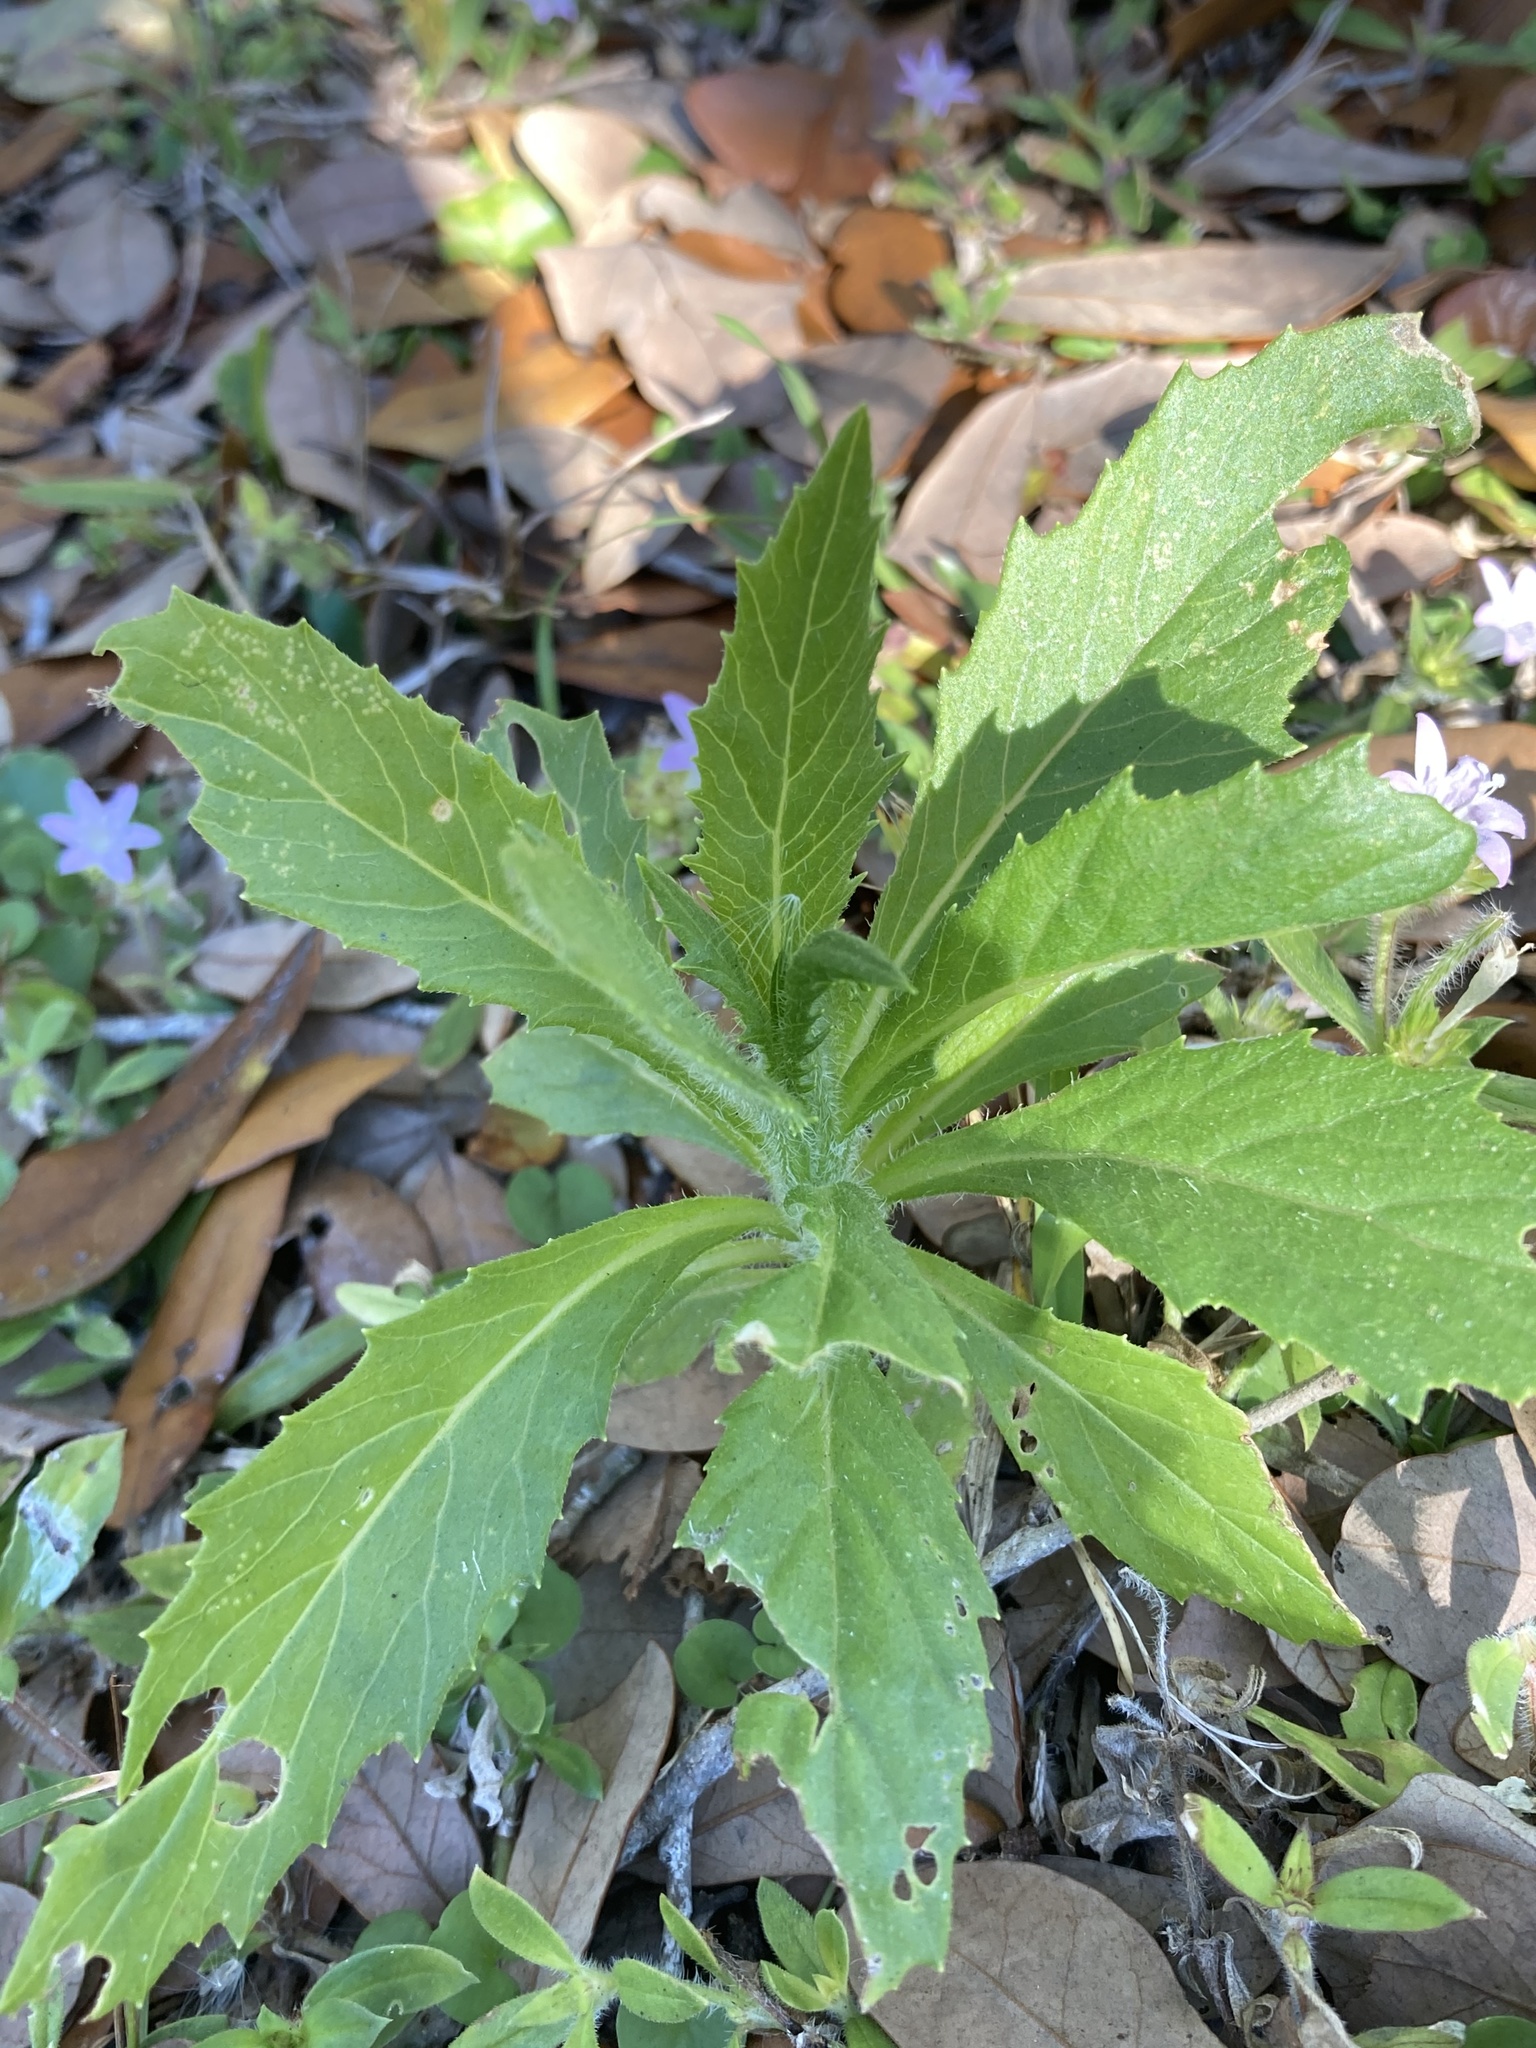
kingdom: Plantae
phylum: Tracheophyta
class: Magnoliopsida
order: Asterales
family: Asteraceae
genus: Erechtites
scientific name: Erechtites hieraciifolius
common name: American burnweed
